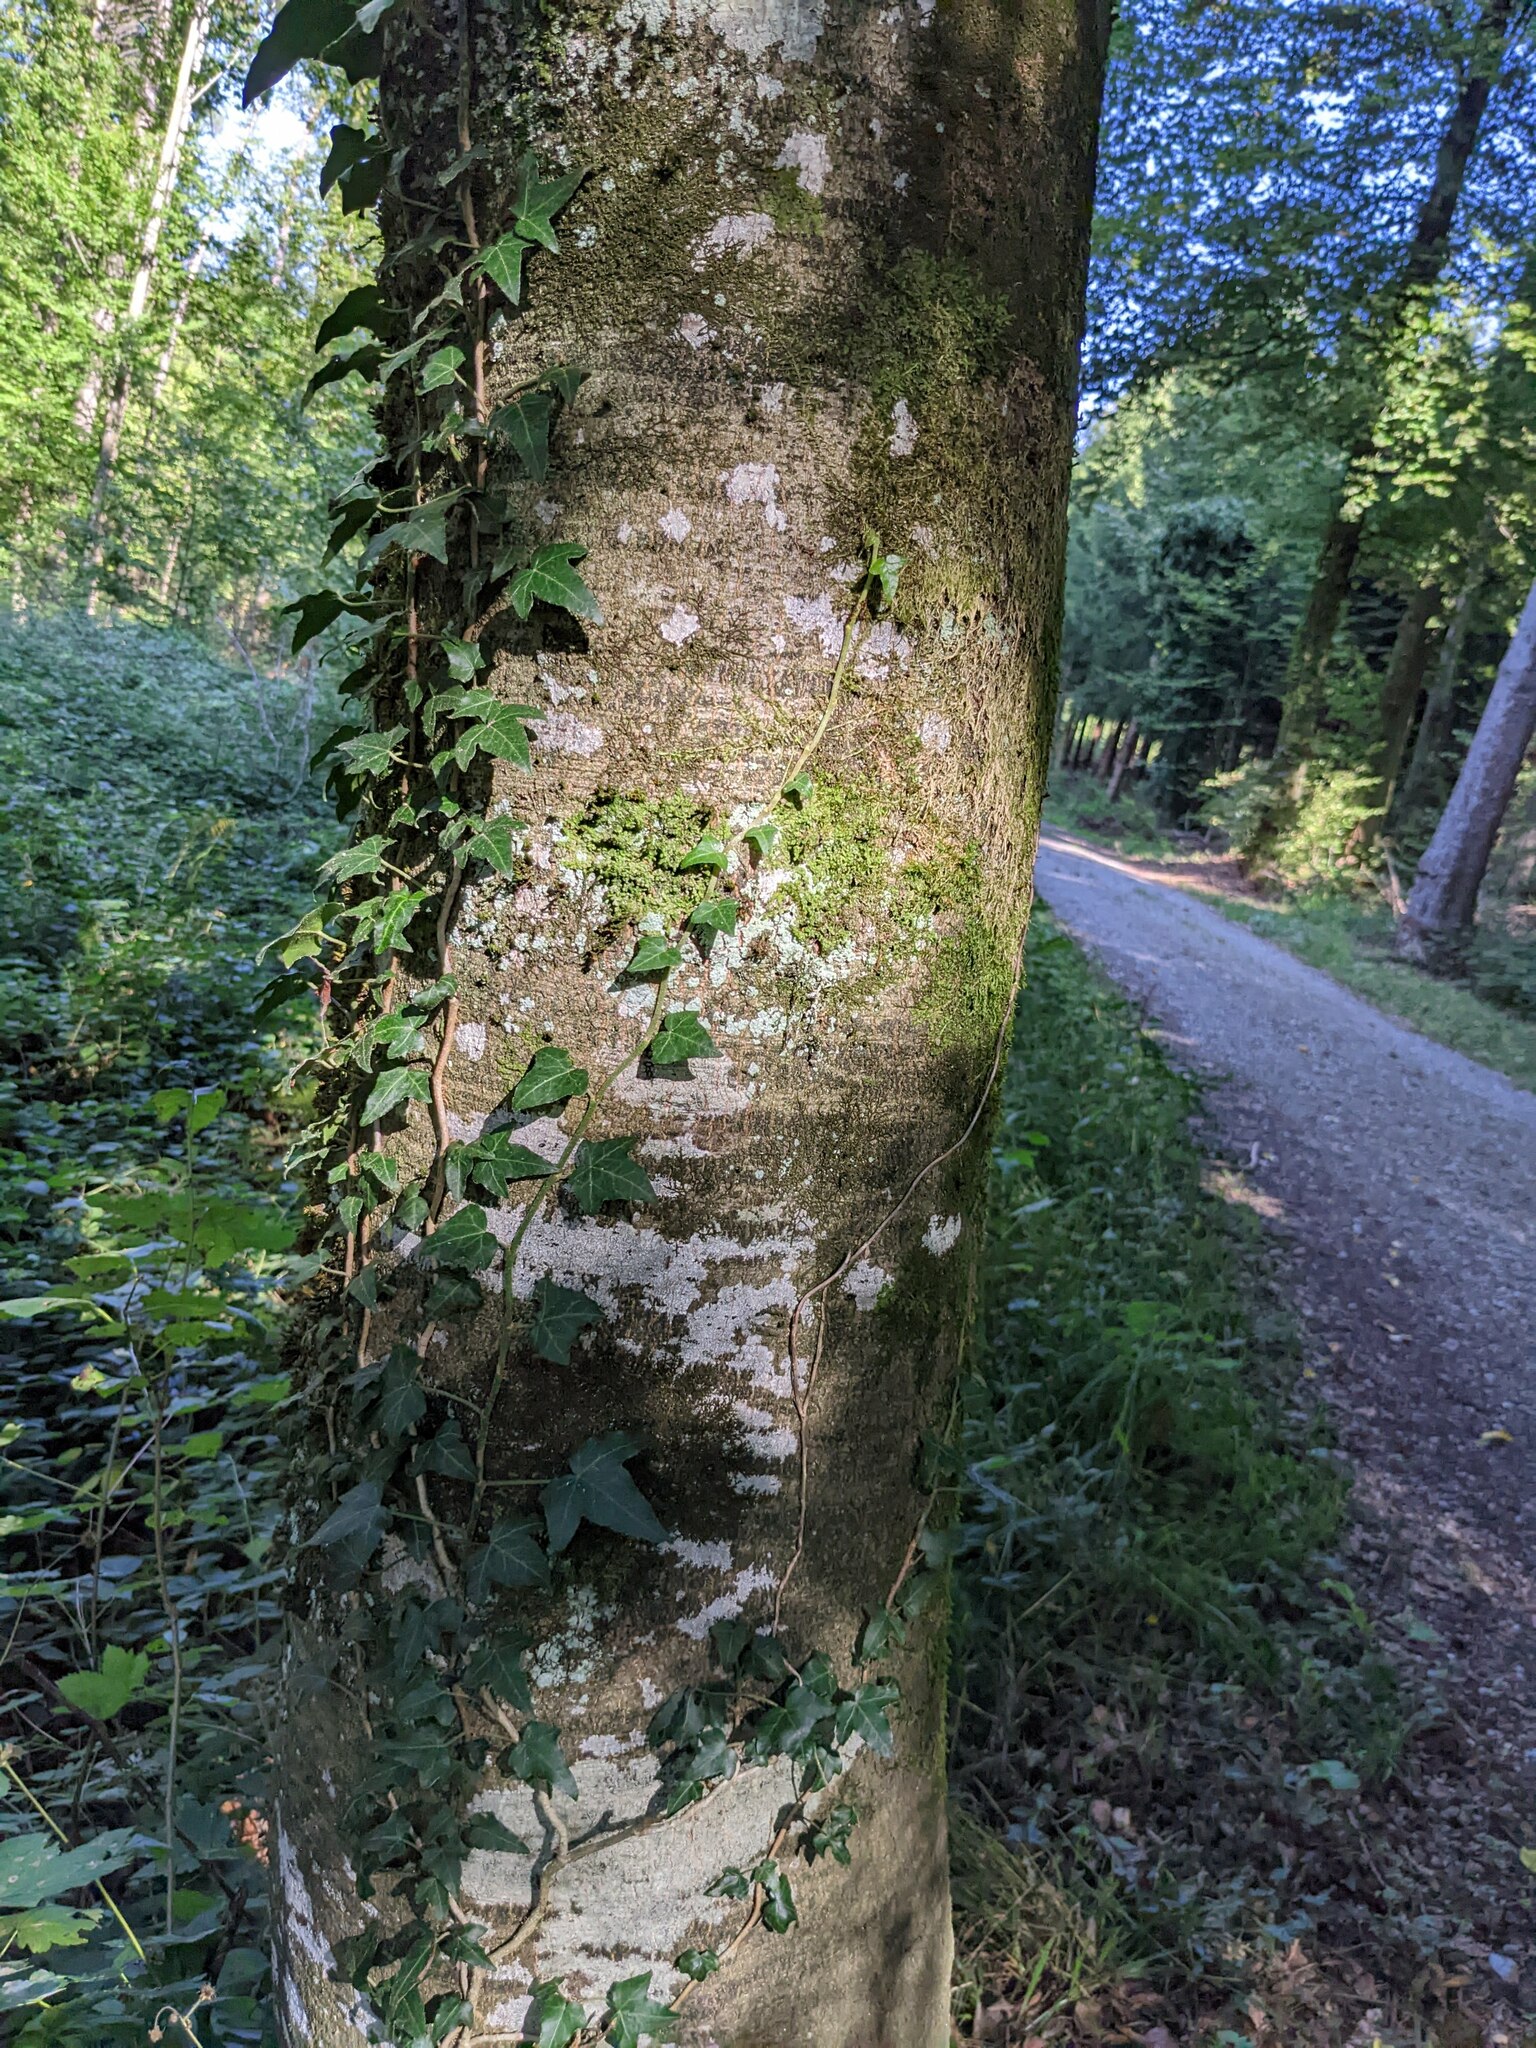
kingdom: Plantae
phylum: Tracheophyta
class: Magnoliopsida
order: Apiales
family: Araliaceae
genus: Hedera
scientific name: Hedera helix
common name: Ivy
